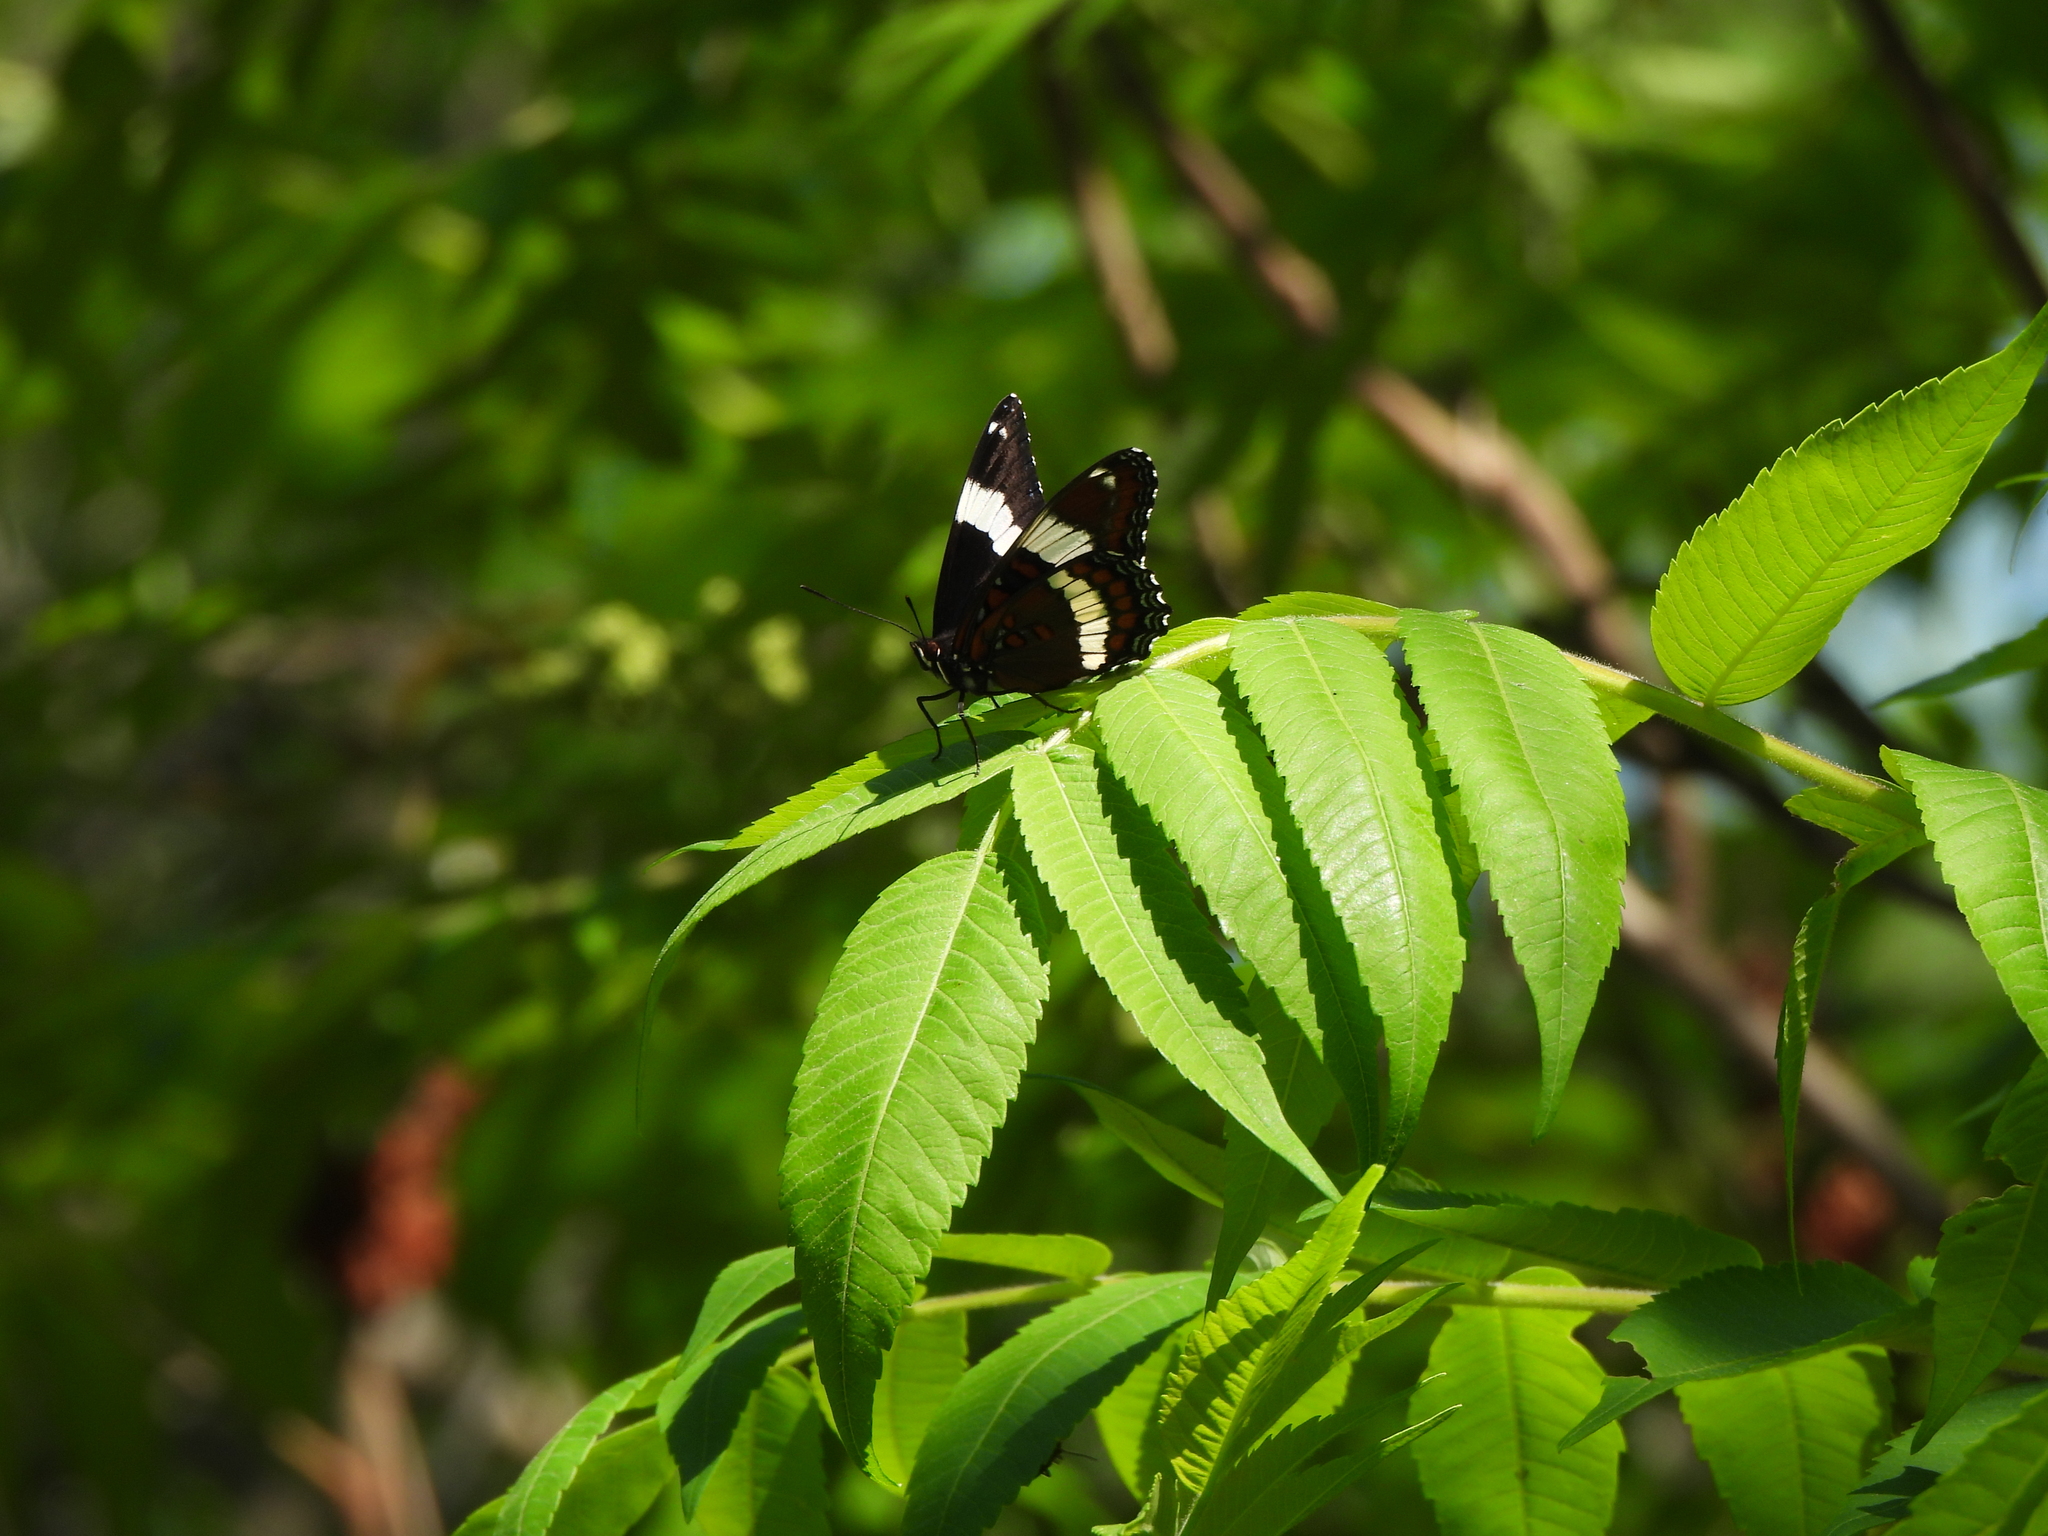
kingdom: Animalia
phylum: Arthropoda
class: Insecta
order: Lepidoptera
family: Nymphalidae
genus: Limenitis
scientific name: Limenitis arthemis
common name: Red-spotted admiral
